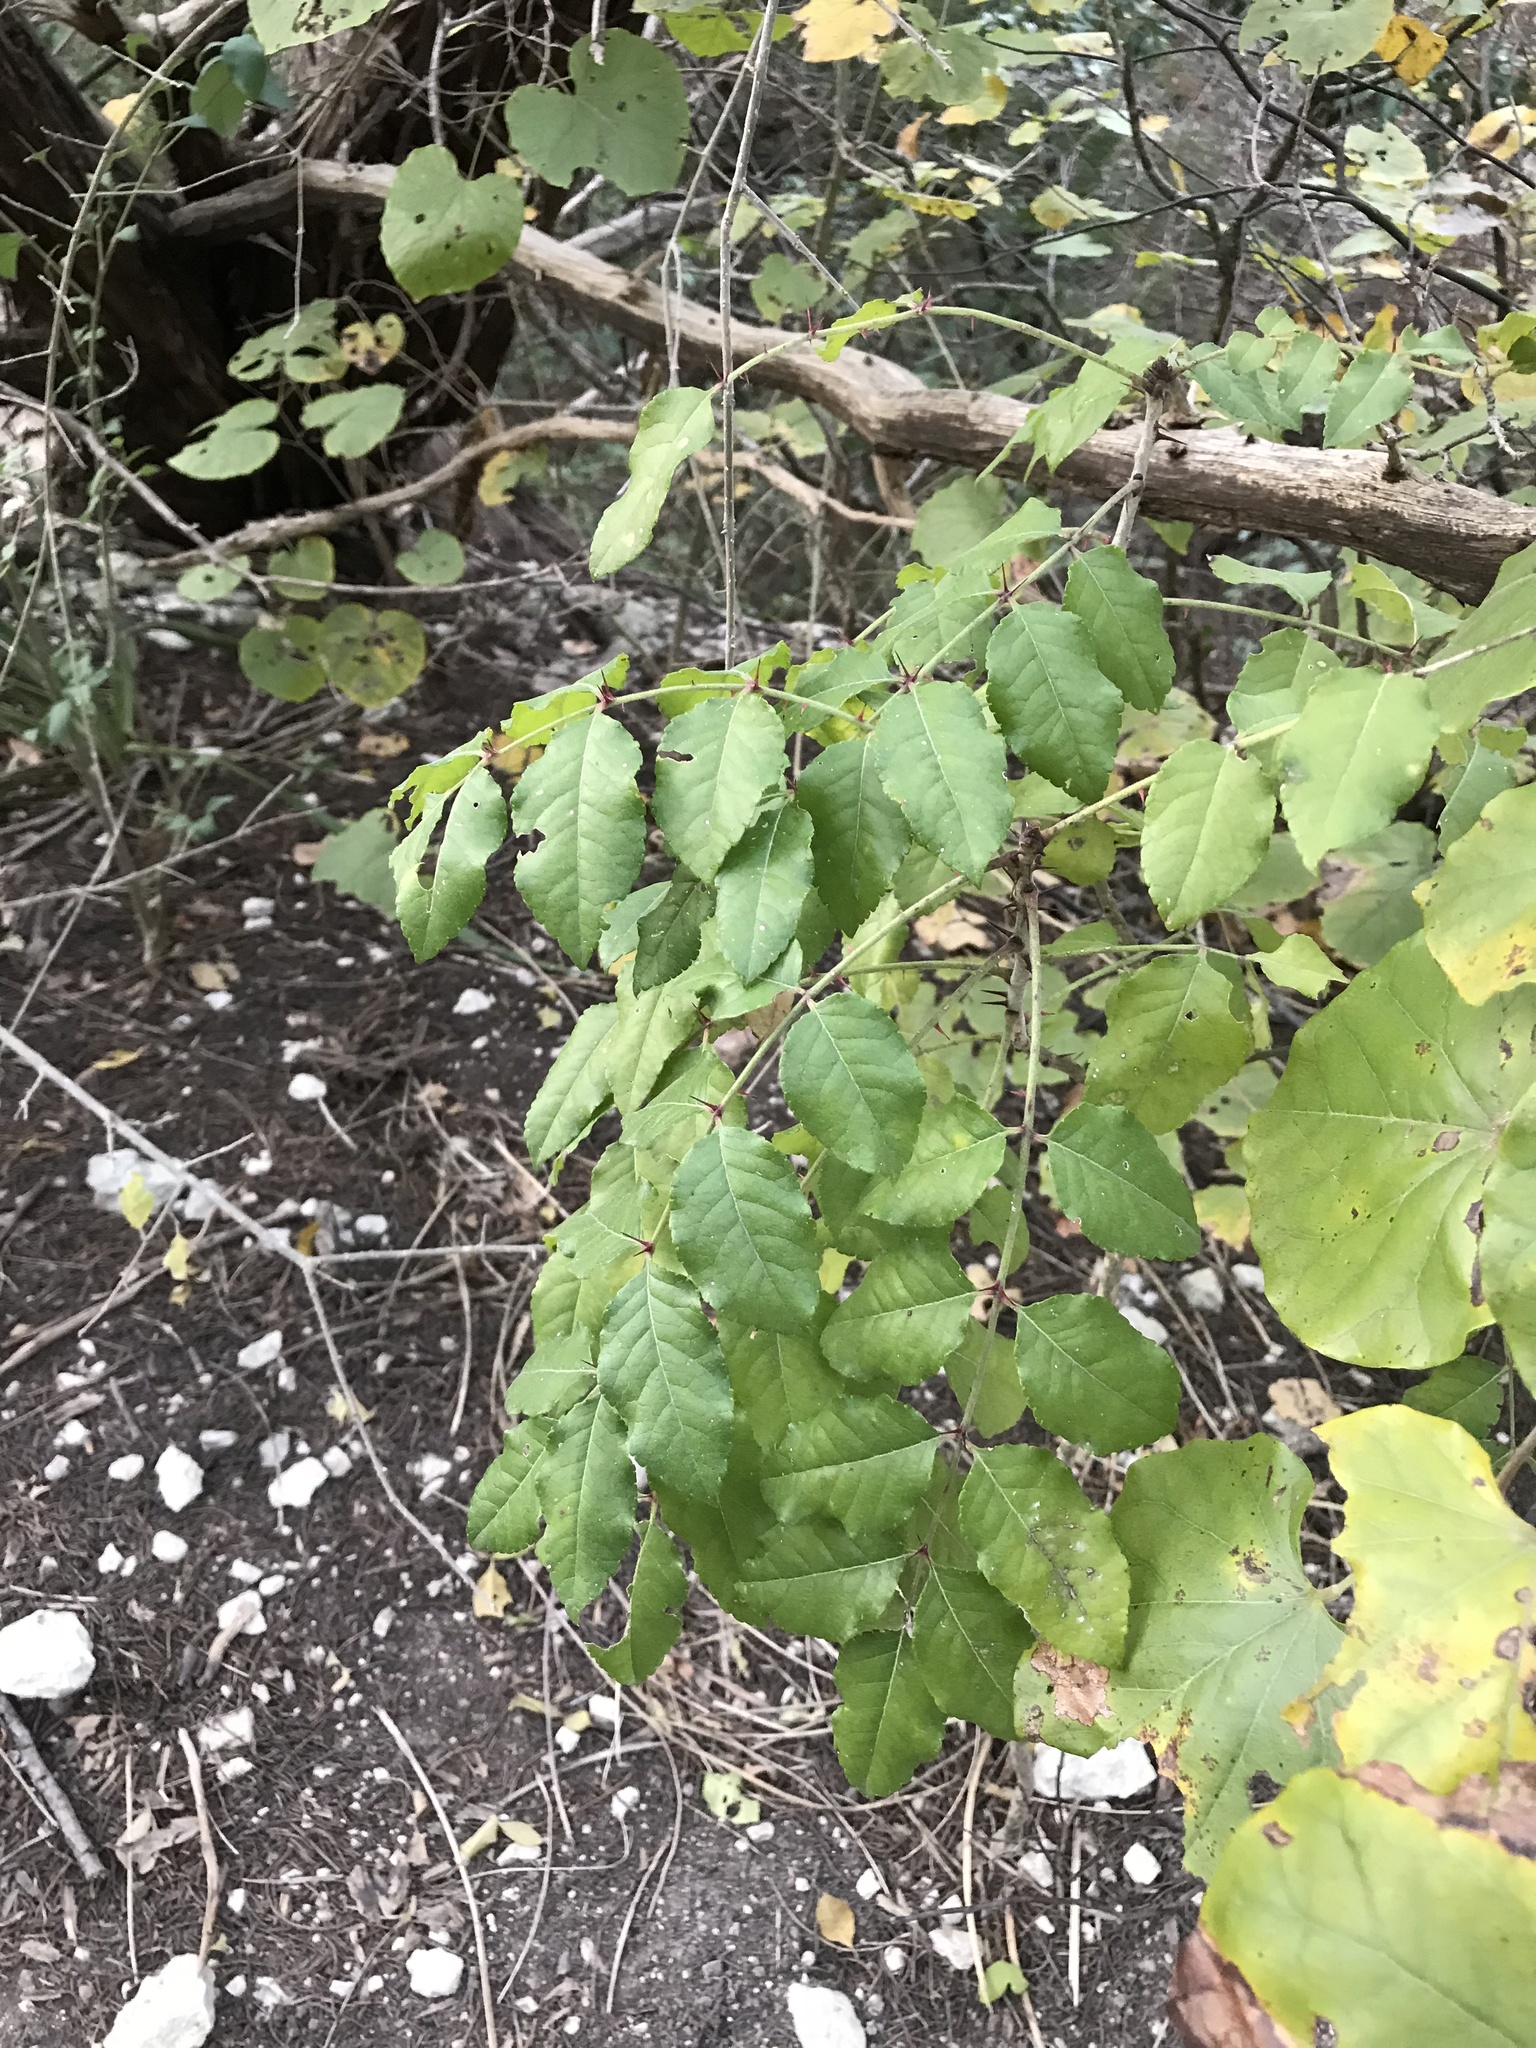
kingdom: Plantae
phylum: Tracheophyta
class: Magnoliopsida
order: Sapindales
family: Rutaceae
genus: Zanthoxylum
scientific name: Zanthoxylum clava-herculis
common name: Hercules'-club
